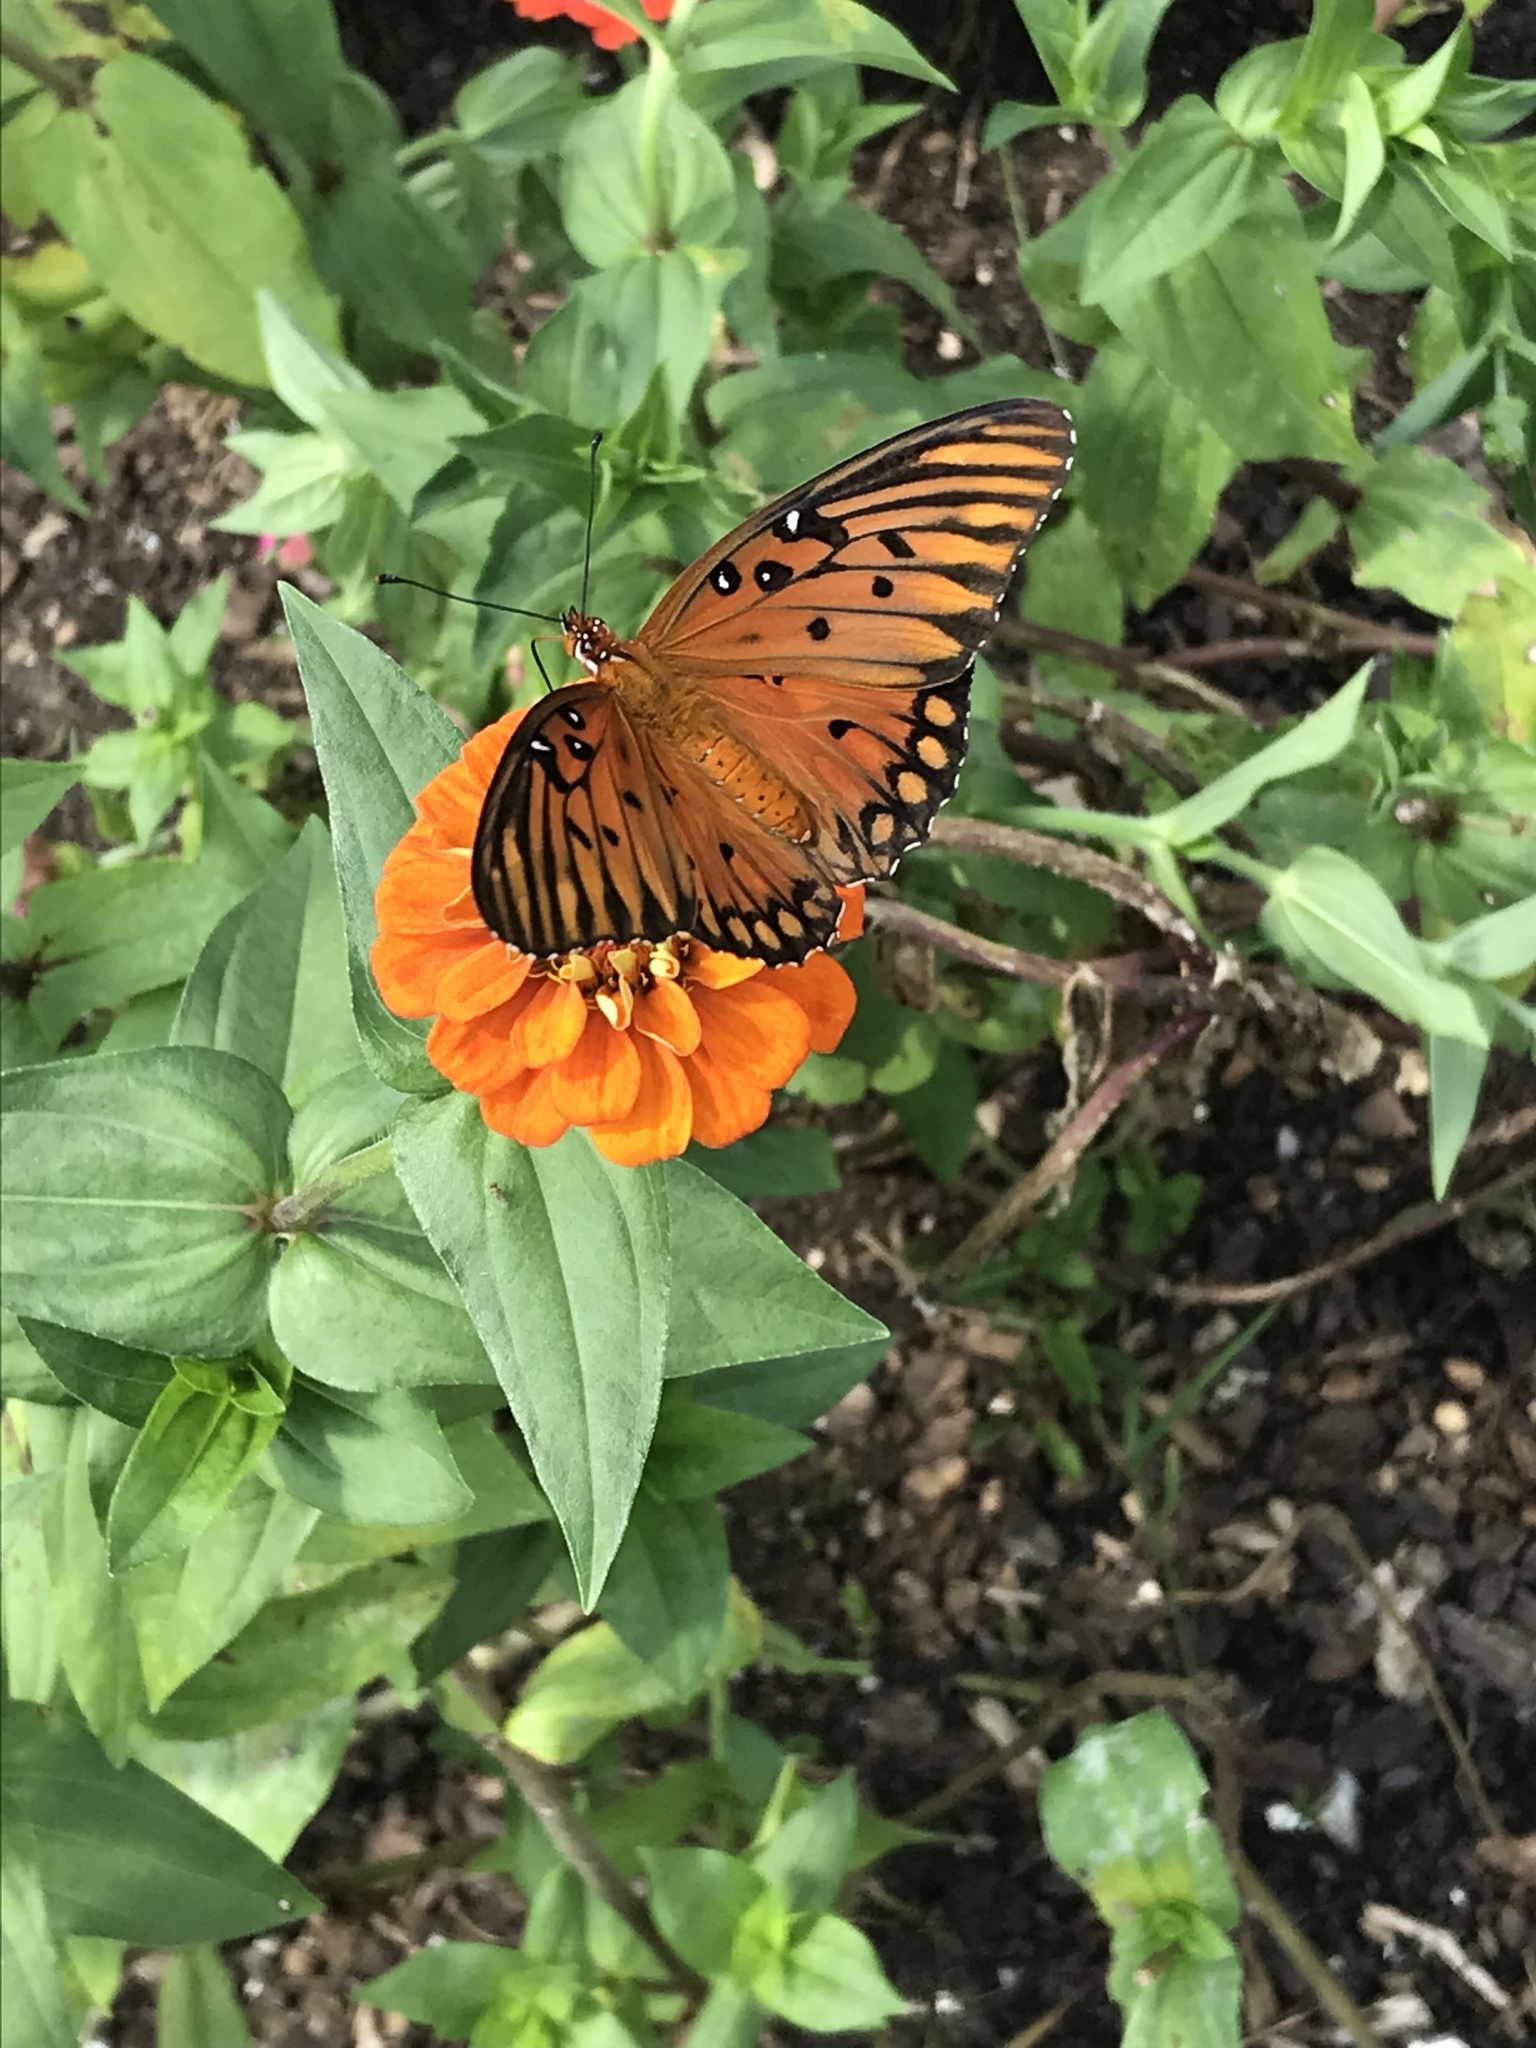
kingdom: Animalia
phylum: Arthropoda
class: Insecta
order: Lepidoptera
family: Nymphalidae
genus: Dione
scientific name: Dione vanillae
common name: Gulf fritillary
